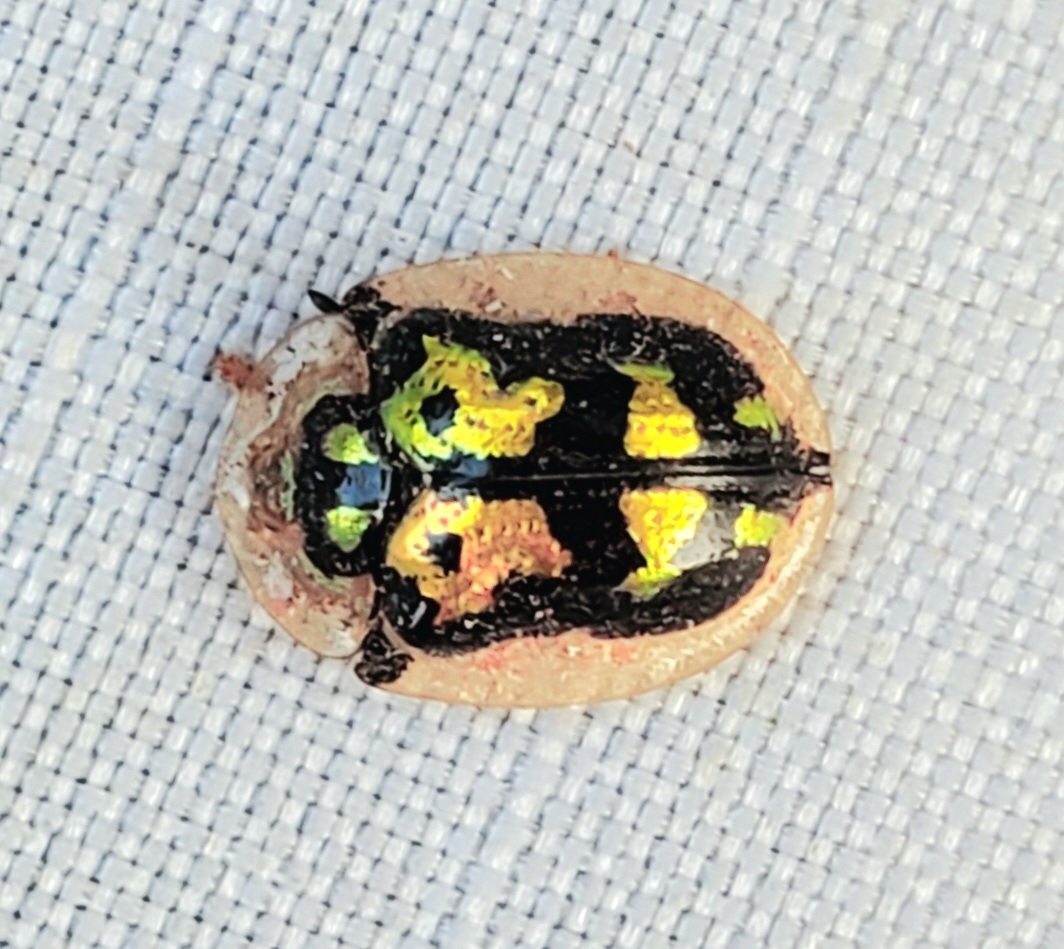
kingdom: Animalia
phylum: Arthropoda
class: Insecta
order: Coleoptera
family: Chrysomelidae
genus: Deloyala
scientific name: Deloyala lecontei
